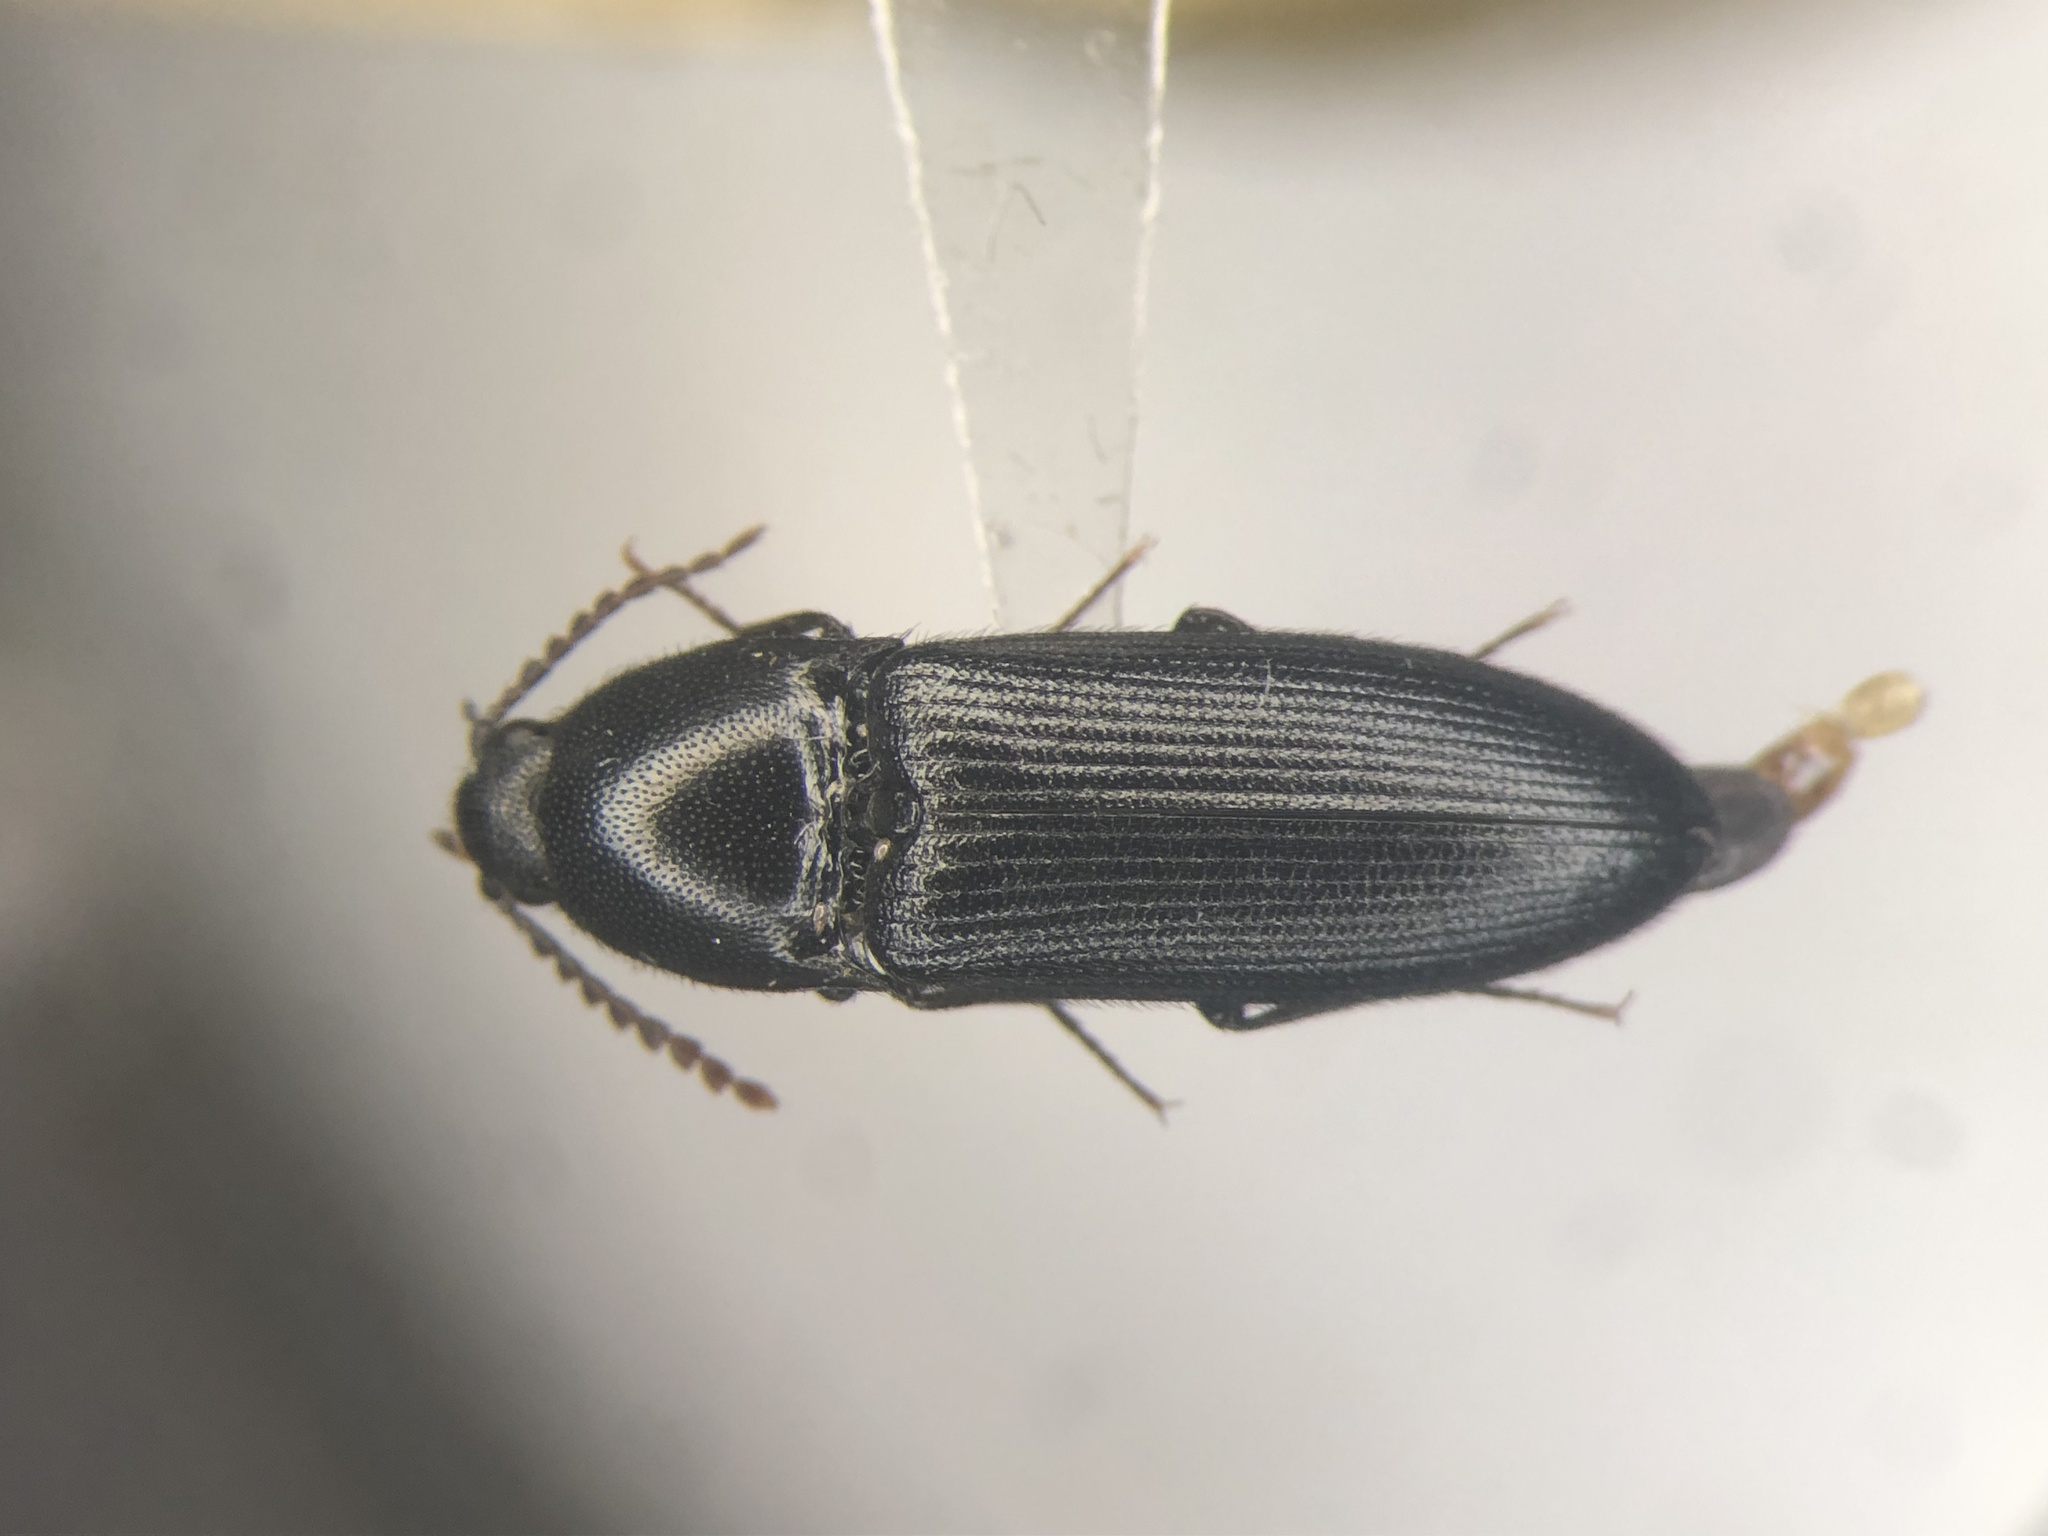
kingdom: Animalia
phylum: Arthropoda
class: Insecta
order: Coleoptera
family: Elateridae
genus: Ampedus
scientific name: Ampedus laurentinus
